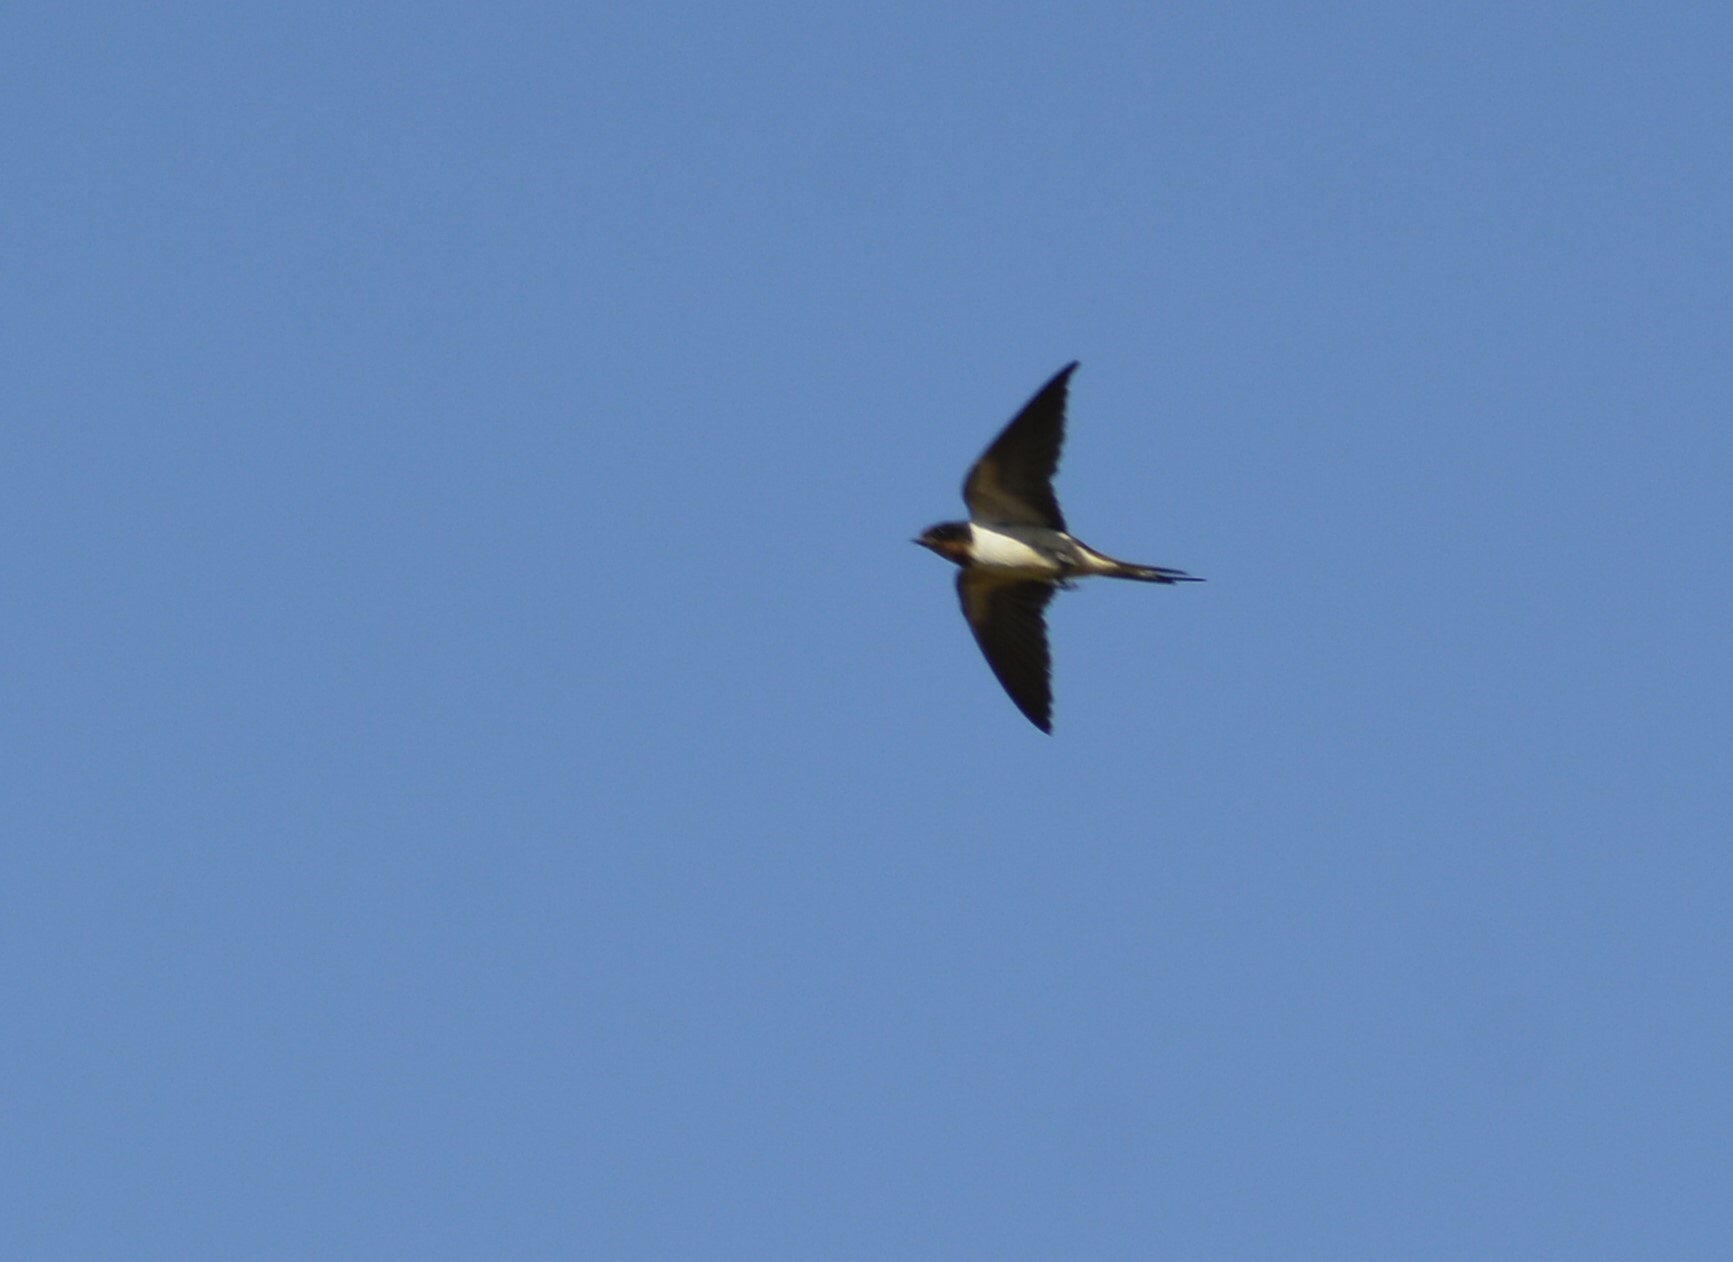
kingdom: Animalia
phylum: Chordata
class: Aves
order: Passeriformes
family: Hirundinidae
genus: Hirundo
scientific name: Hirundo rustica
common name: Barn swallow
